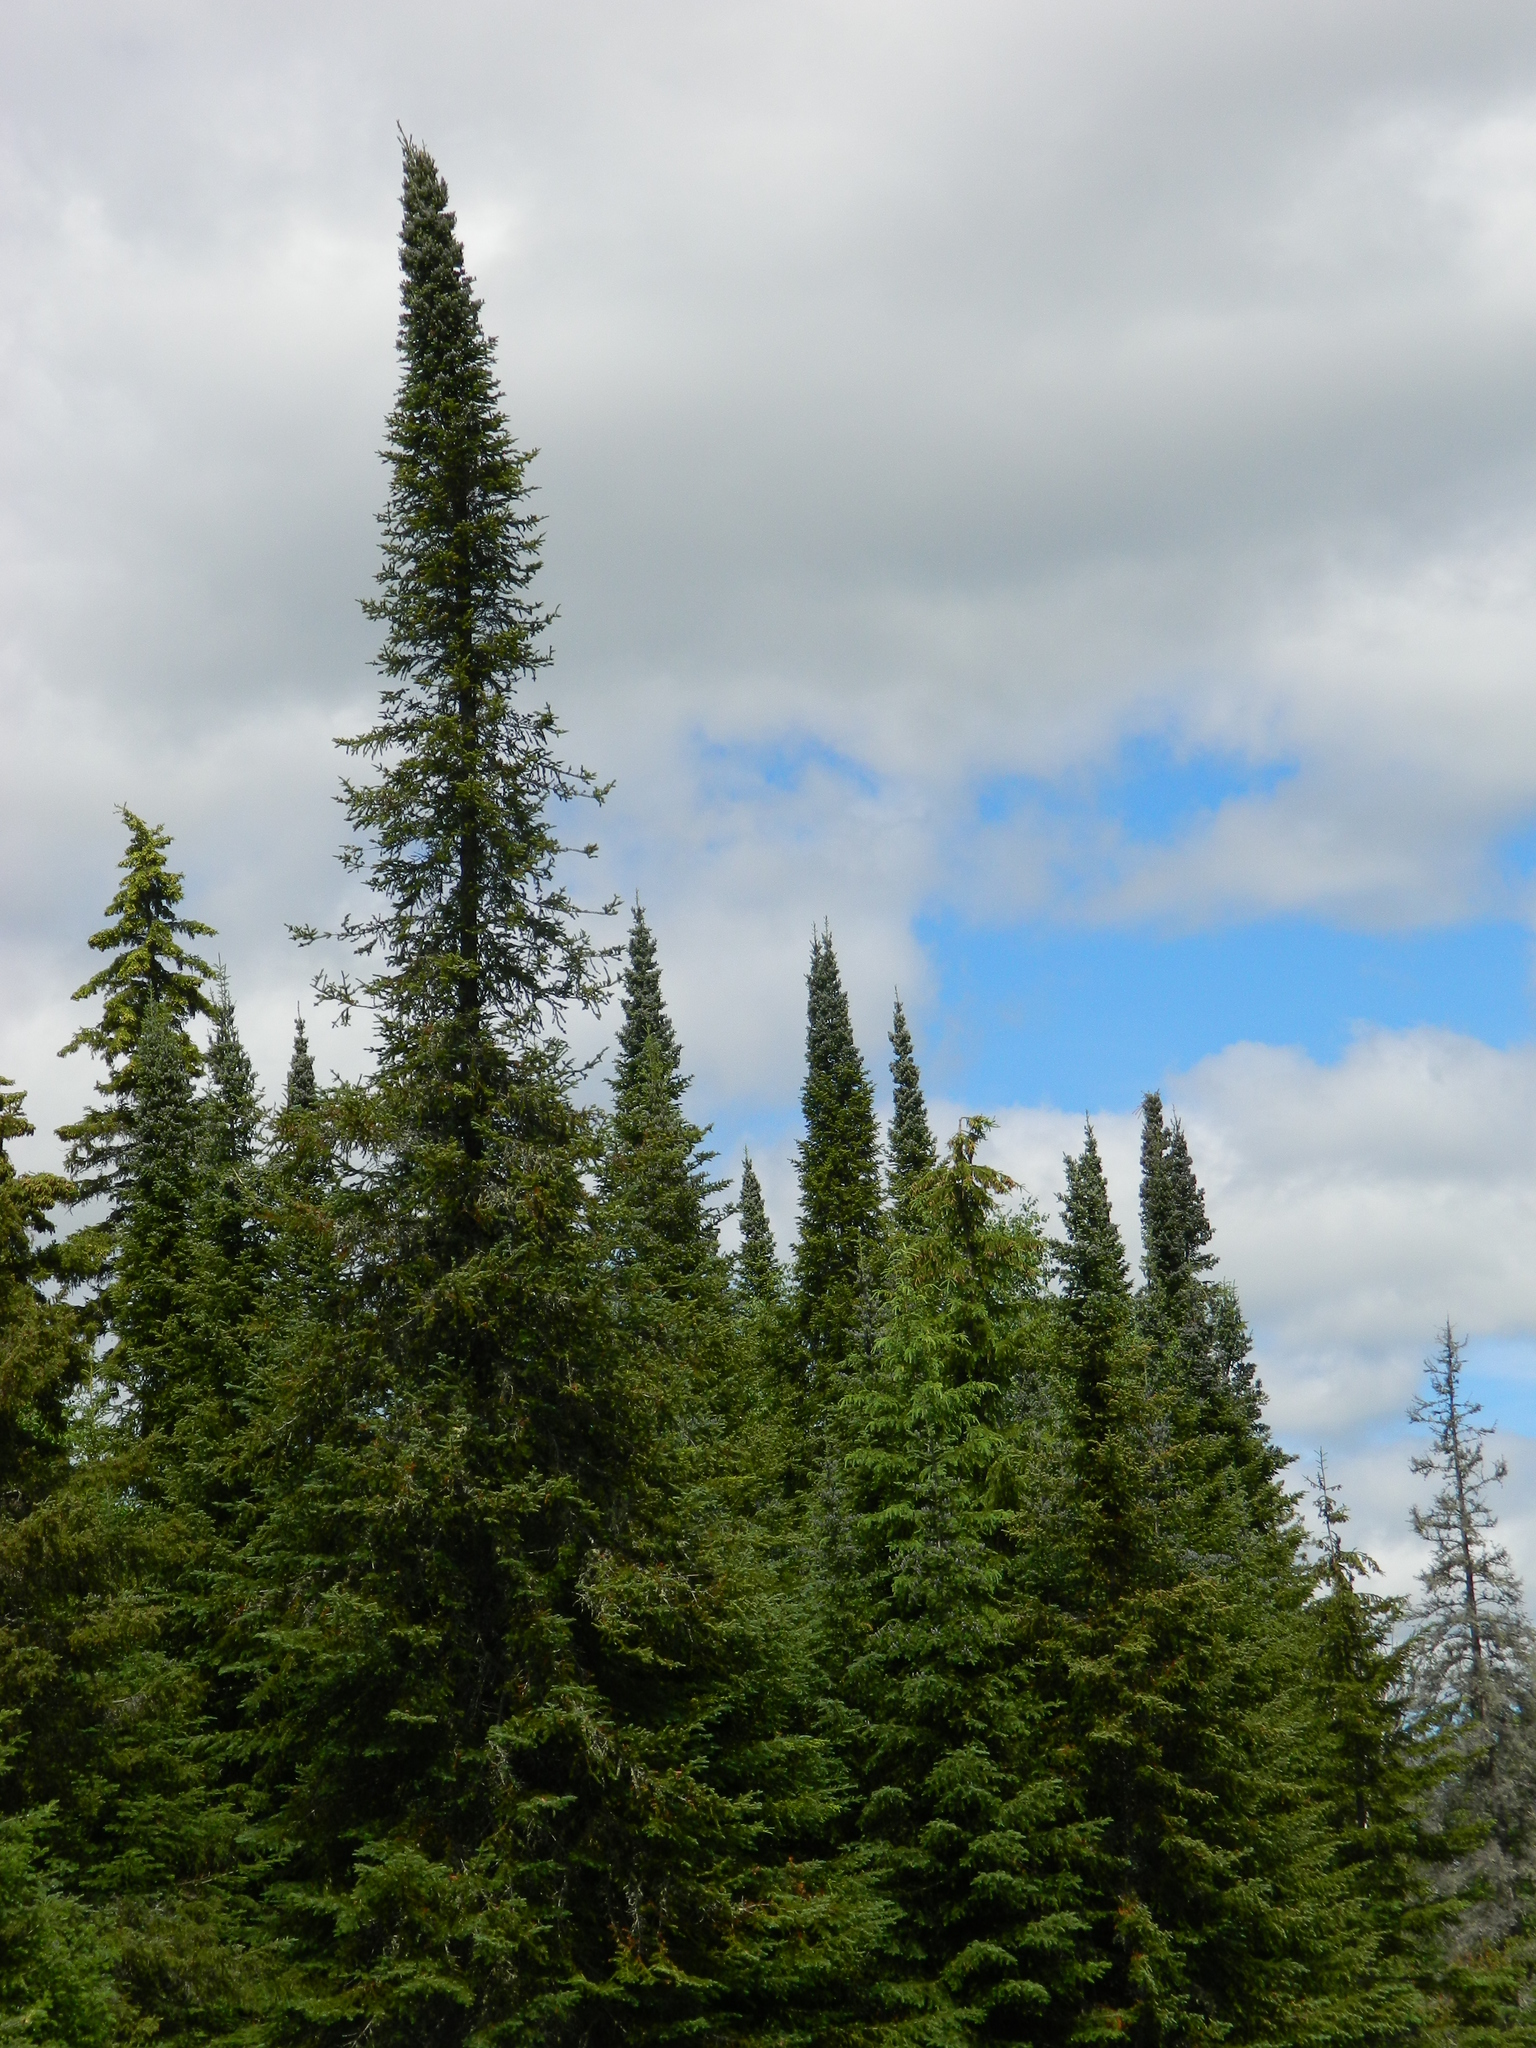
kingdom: Plantae
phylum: Tracheophyta
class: Pinopsida
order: Pinales
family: Pinaceae
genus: Abies
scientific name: Abies balsamea
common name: Balsam fir
